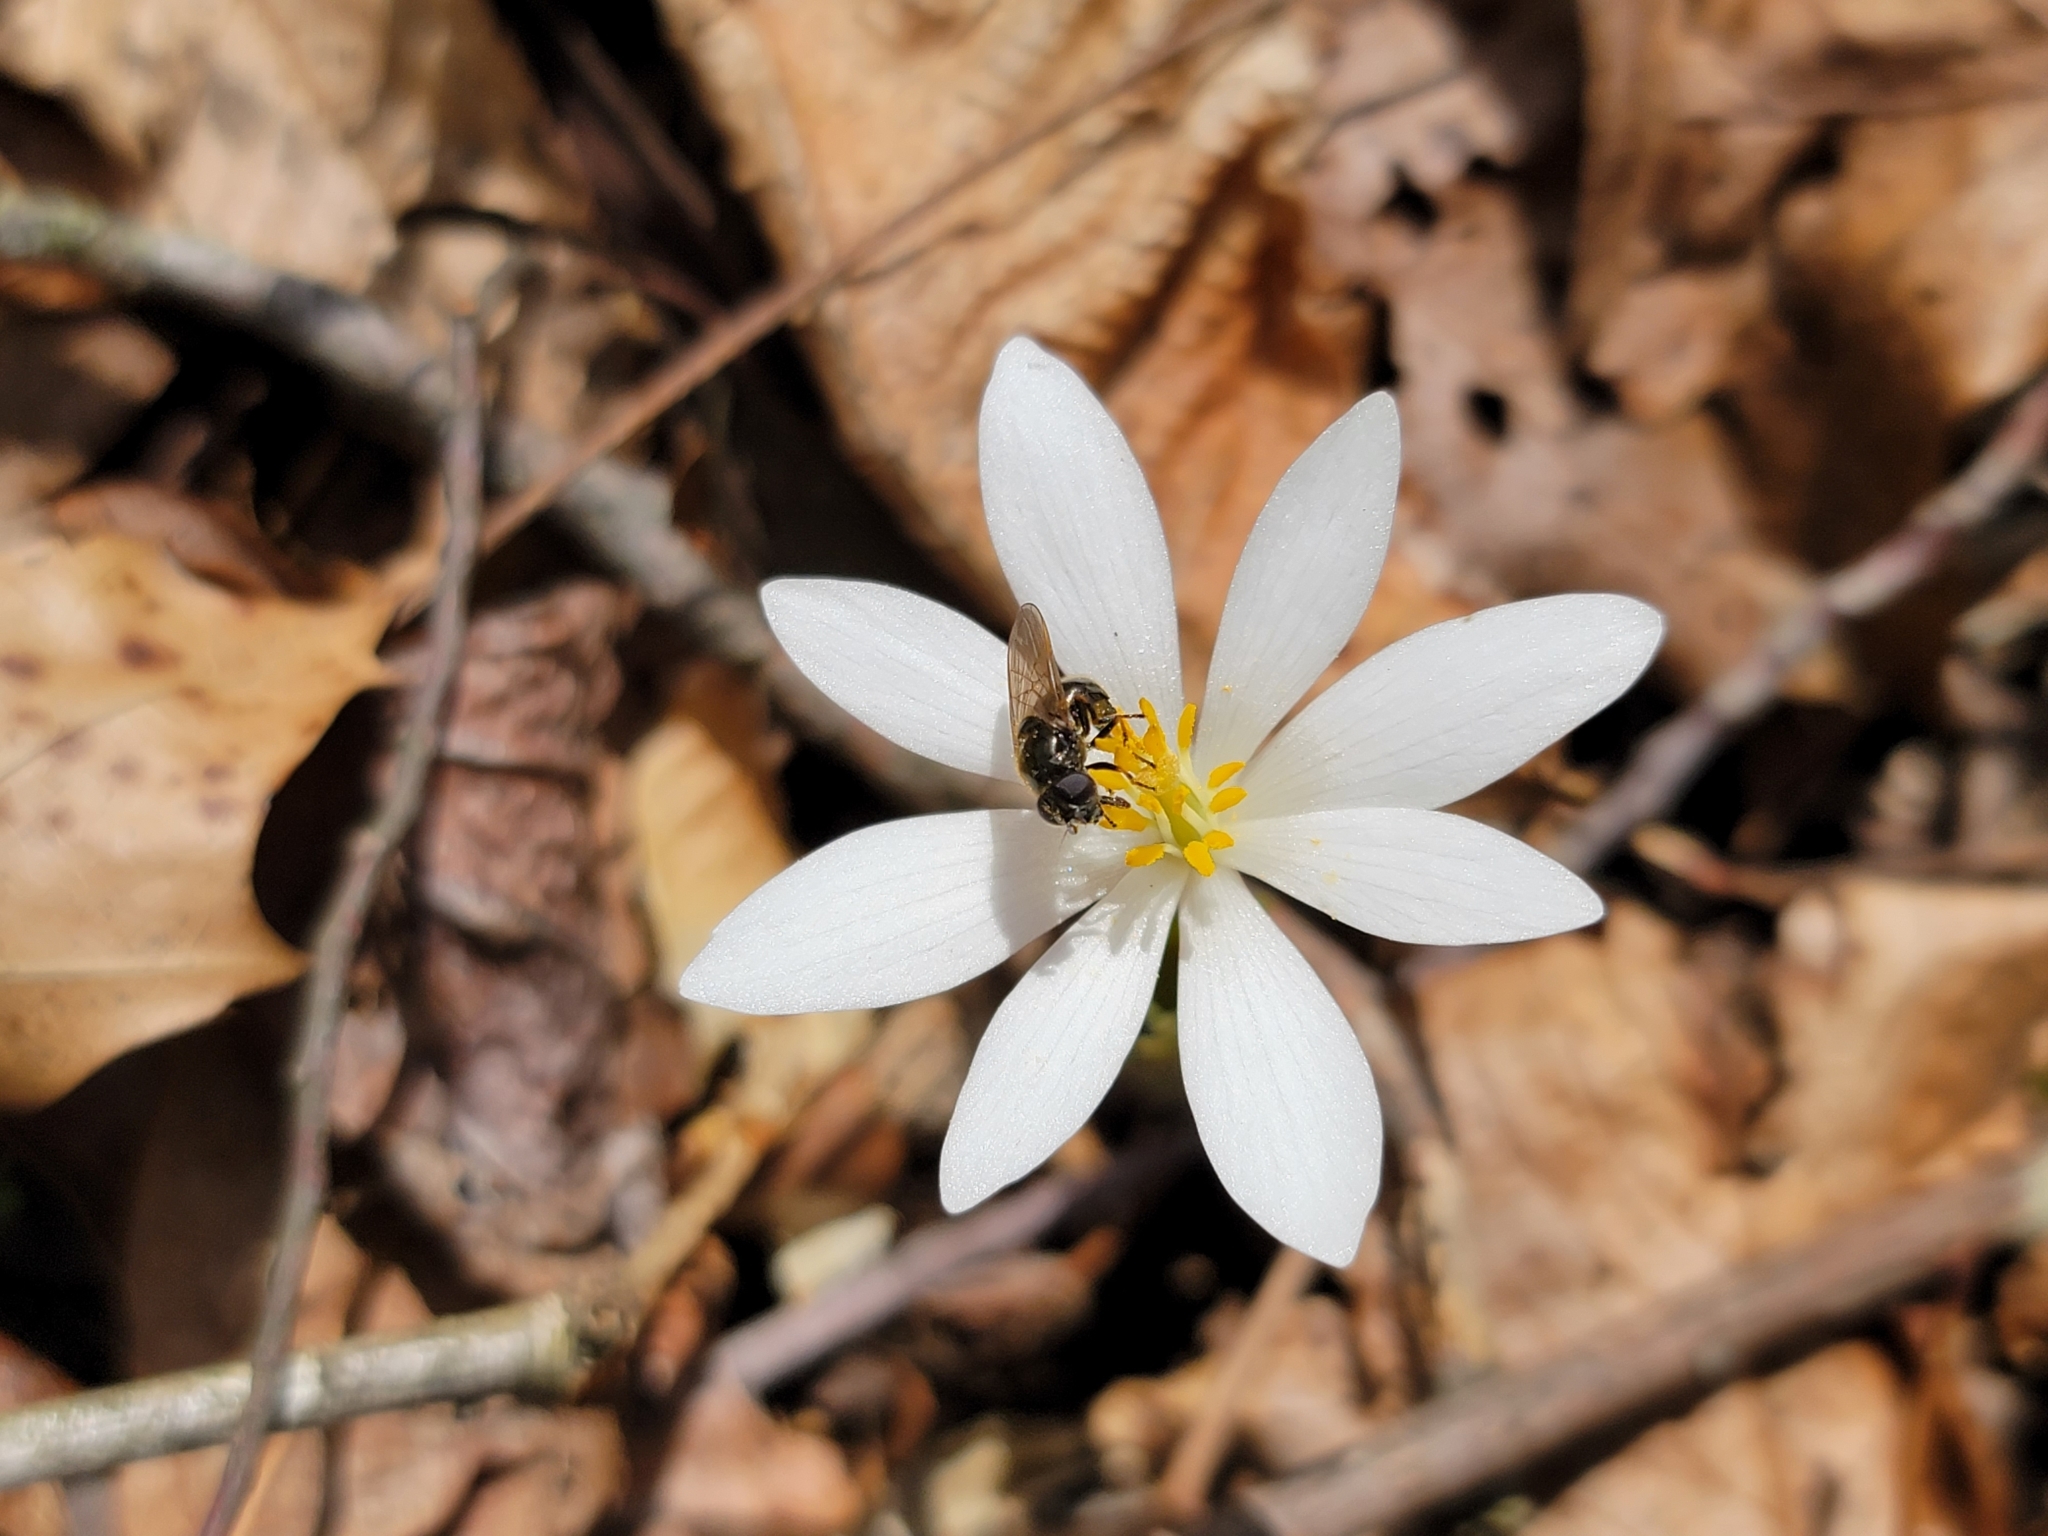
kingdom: Plantae
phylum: Tracheophyta
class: Magnoliopsida
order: Ranunculales
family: Papaveraceae
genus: Sanguinaria
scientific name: Sanguinaria canadensis
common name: Bloodroot
